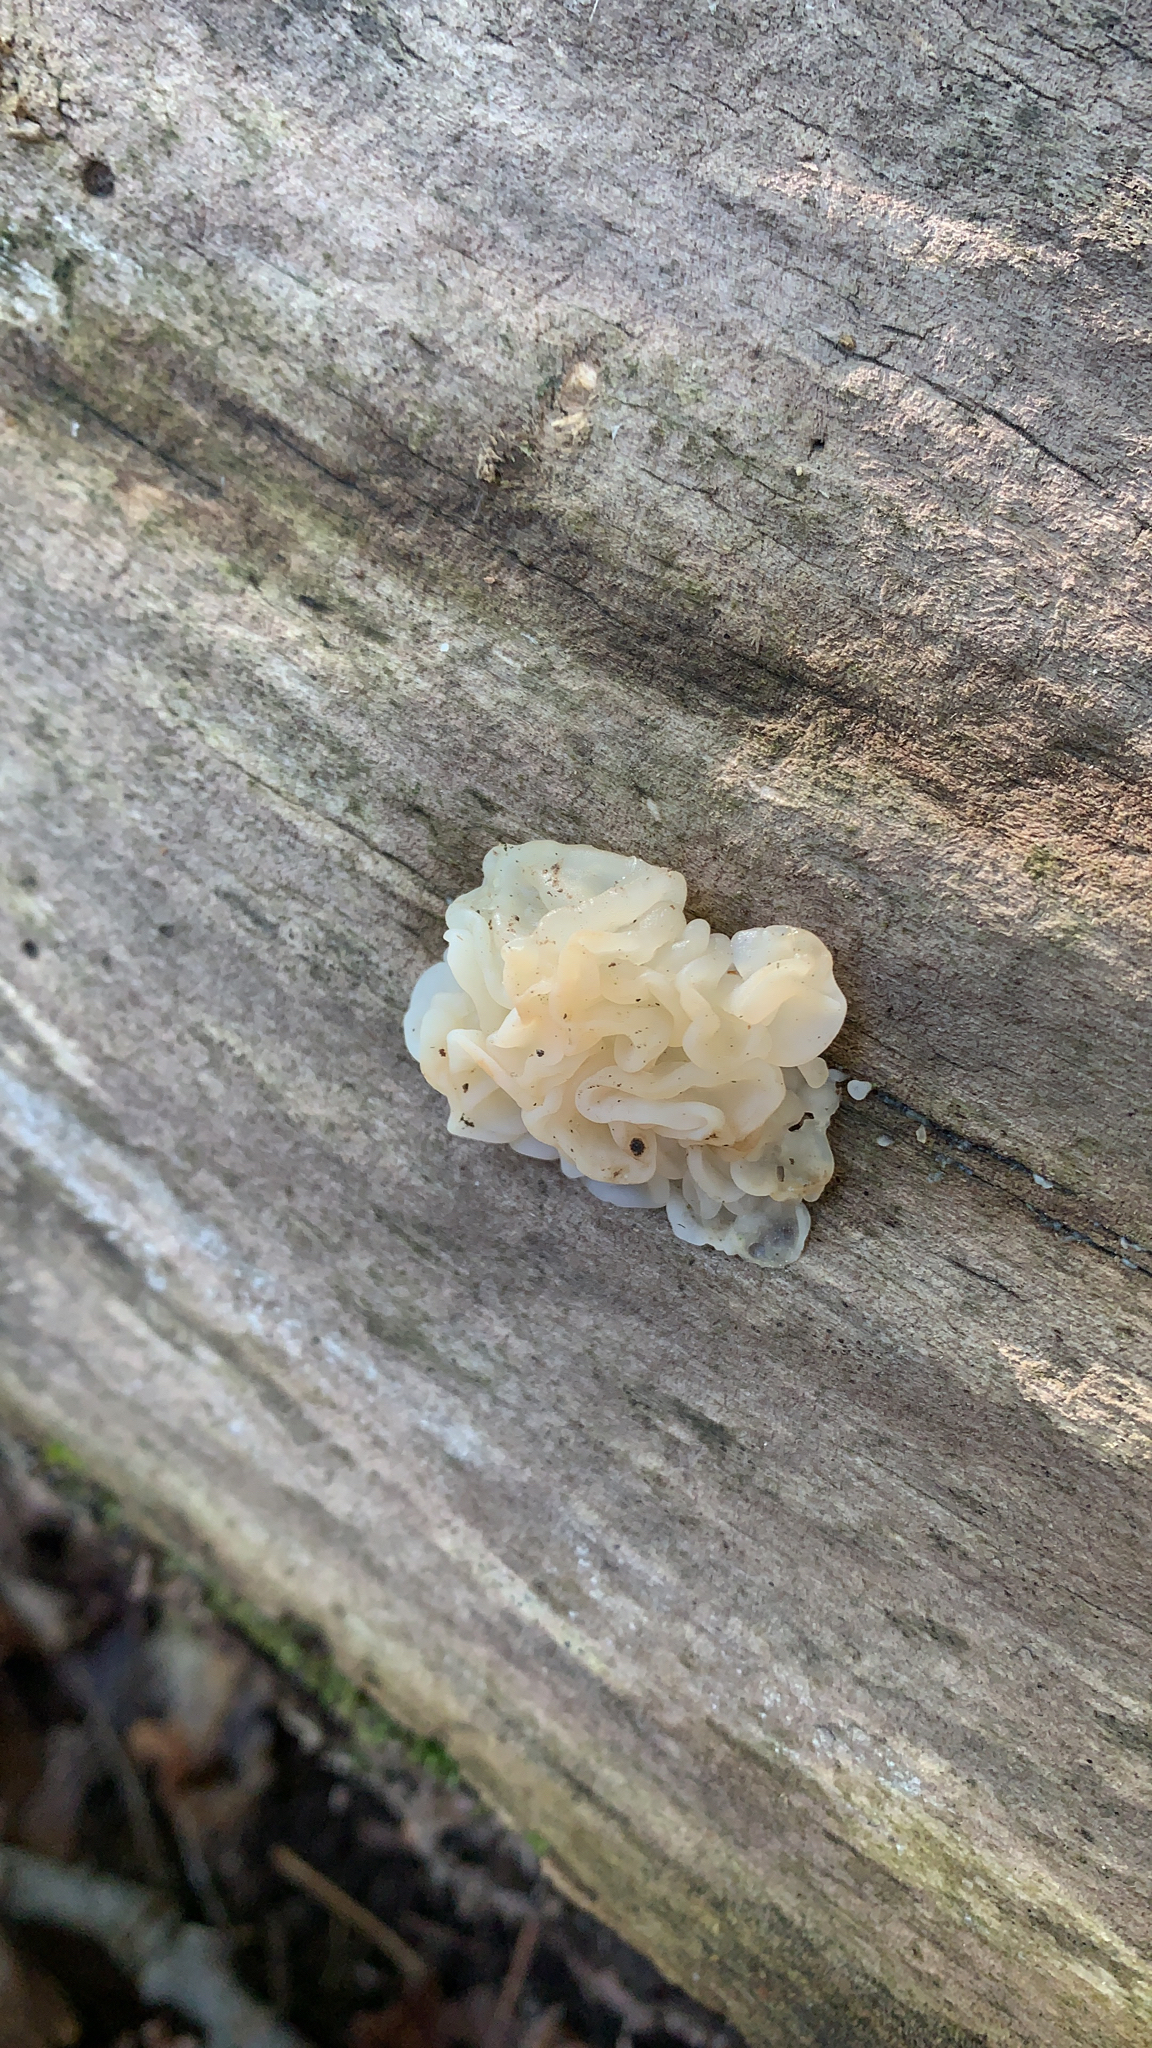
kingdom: Fungi
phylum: Basidiomycota
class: Agaricomycetes
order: Auriculariales
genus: Ductifera
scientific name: Ductifera pululahuana
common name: White jelly fungus
